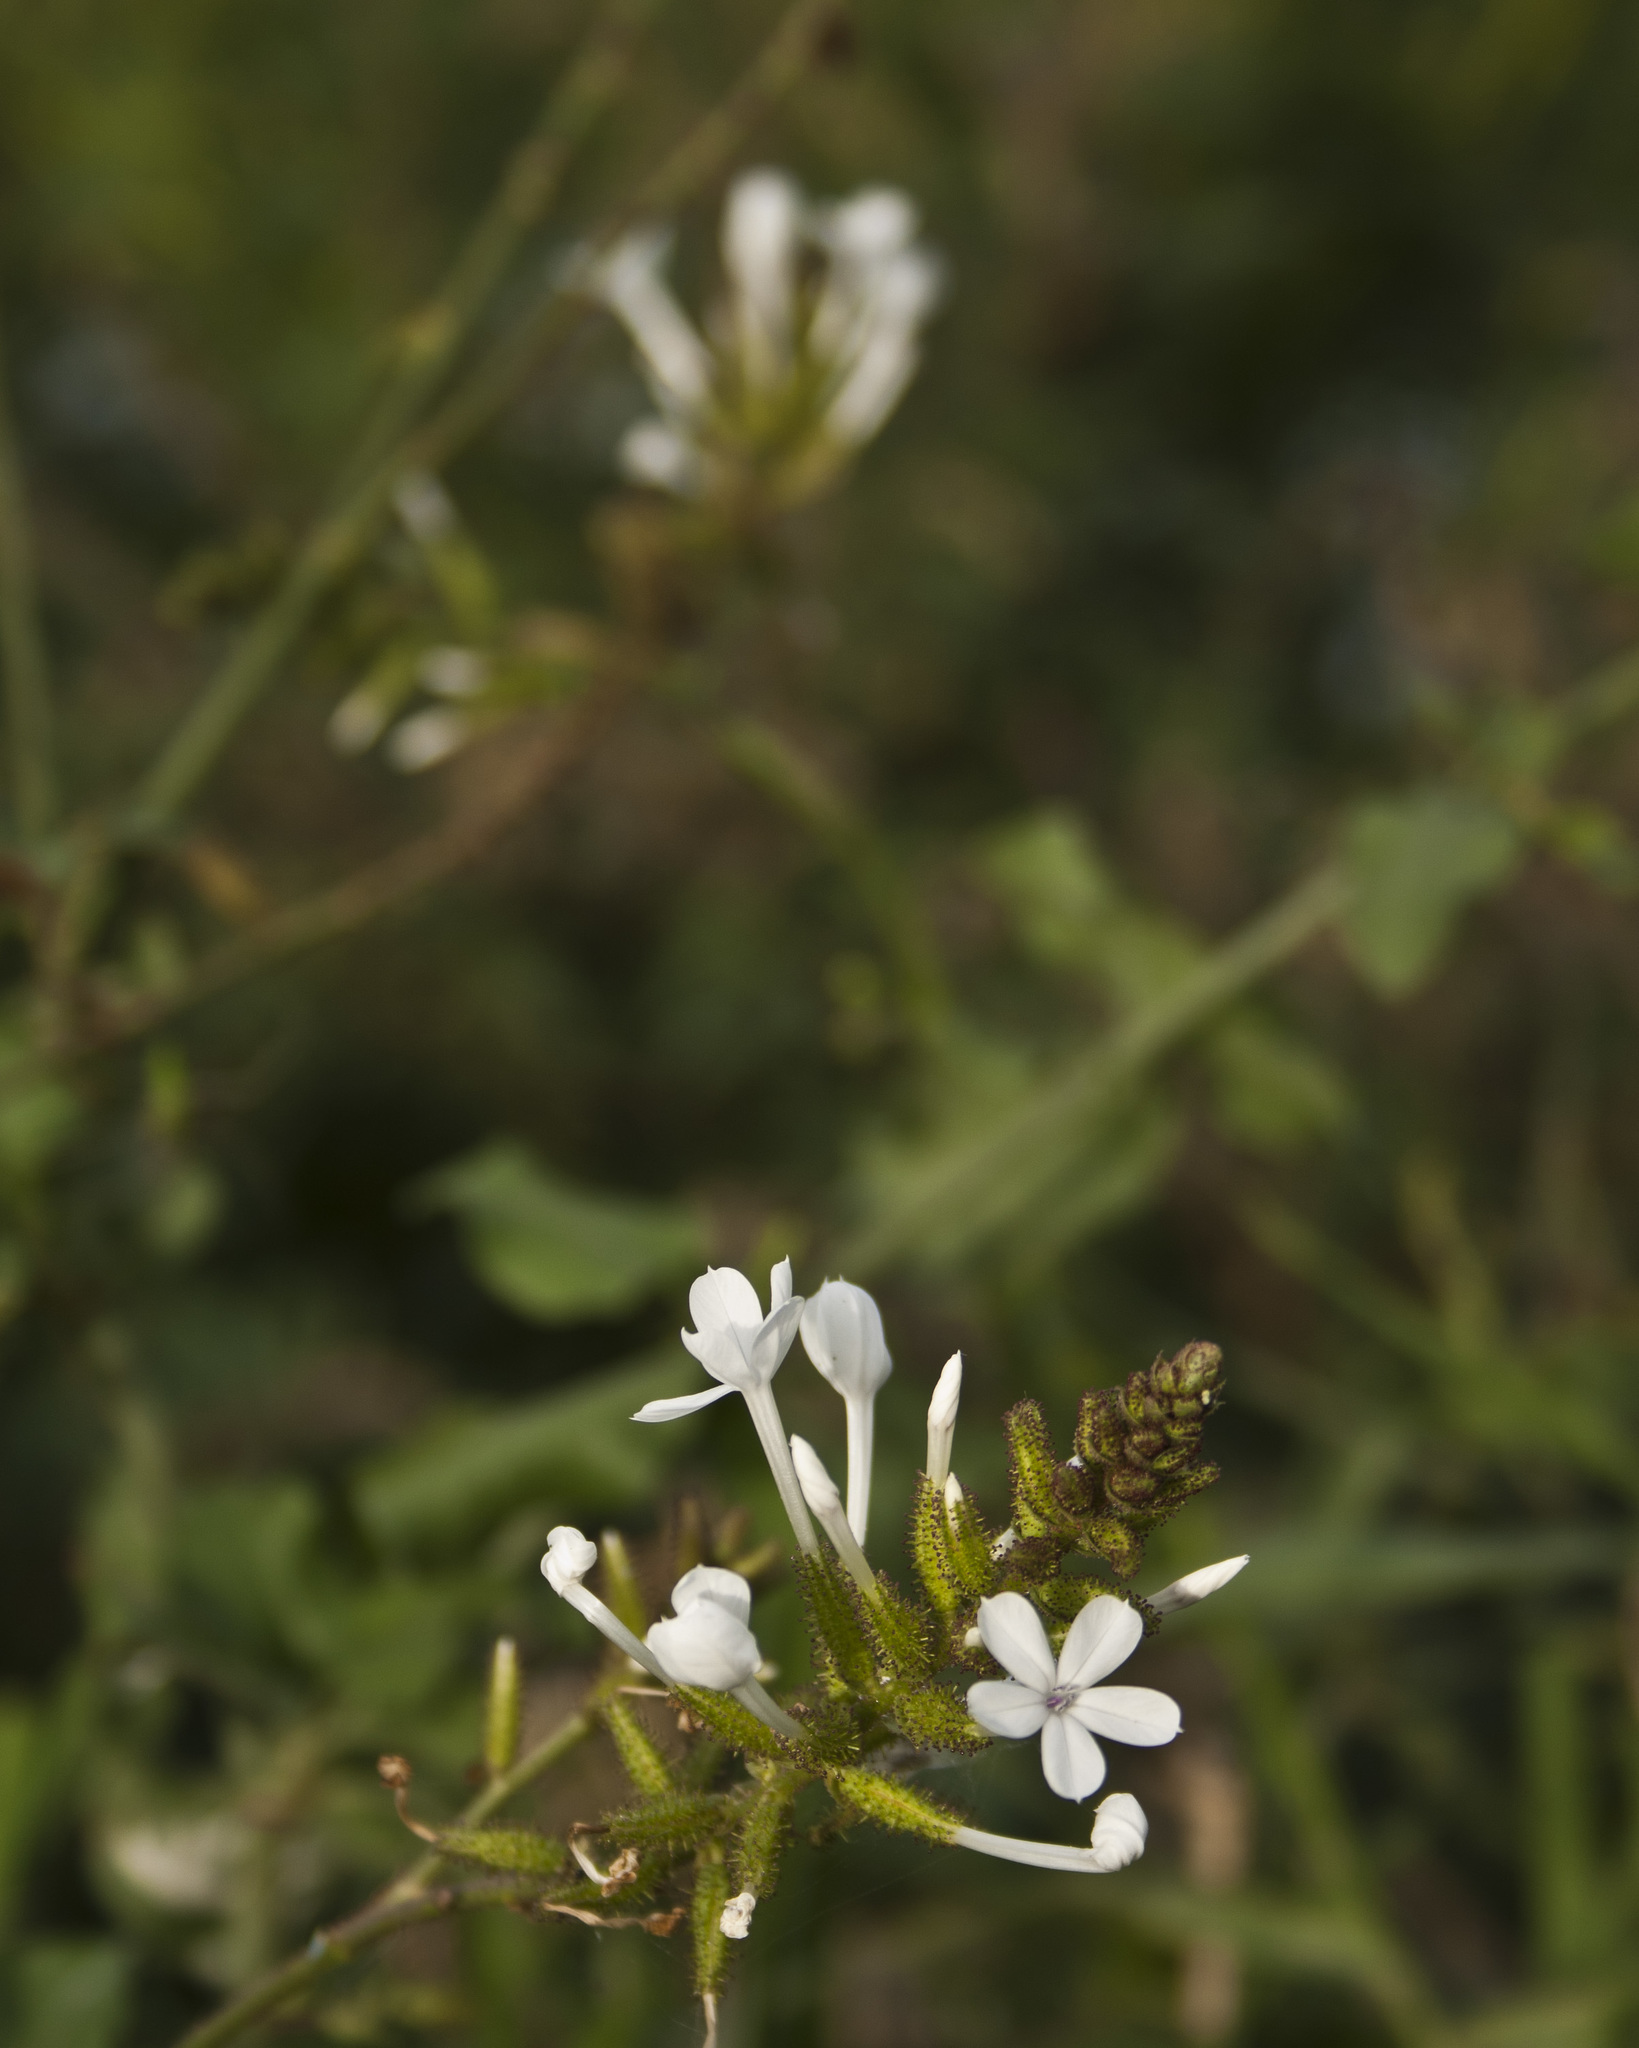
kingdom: Plantae
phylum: Tracheophyta
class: Magnoliopsida
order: Caryophyllales
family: Plumbaginaceae
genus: Plumbago
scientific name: Plumbago zeylanica
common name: Doctorbush
